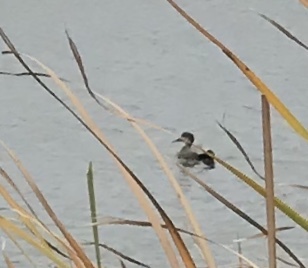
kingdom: Animalia
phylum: Chordata
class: Aves
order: Anseriformes
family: Anatidae
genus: Mareca
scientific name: Mareca strepera
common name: Gadwall
